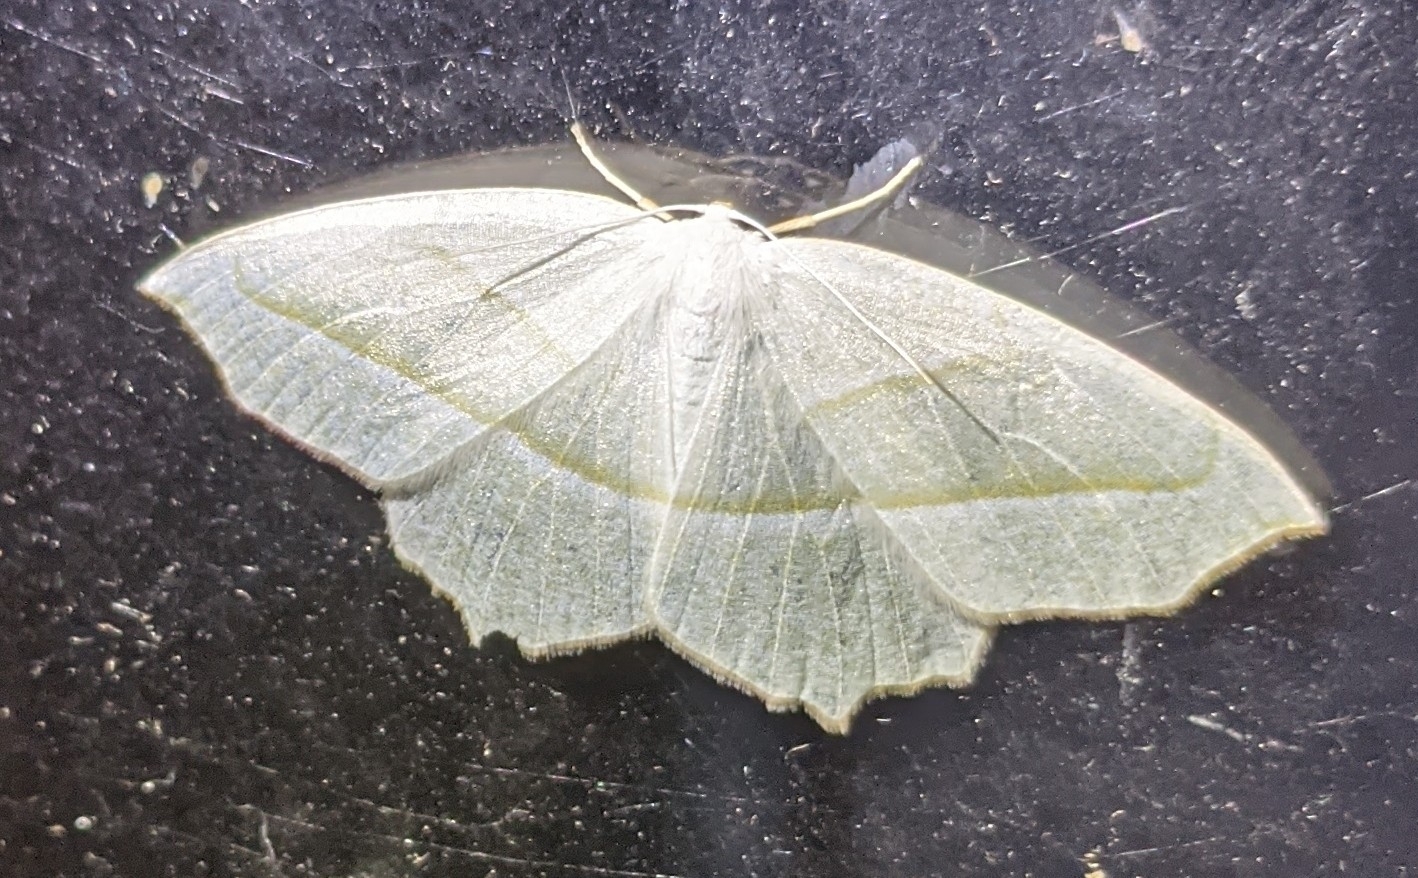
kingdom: Animalia
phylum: Arthropoda
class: Insecta
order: Lepidoptera
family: Geometridae
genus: Campaea
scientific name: Campaea perlata
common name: Fringed looper
